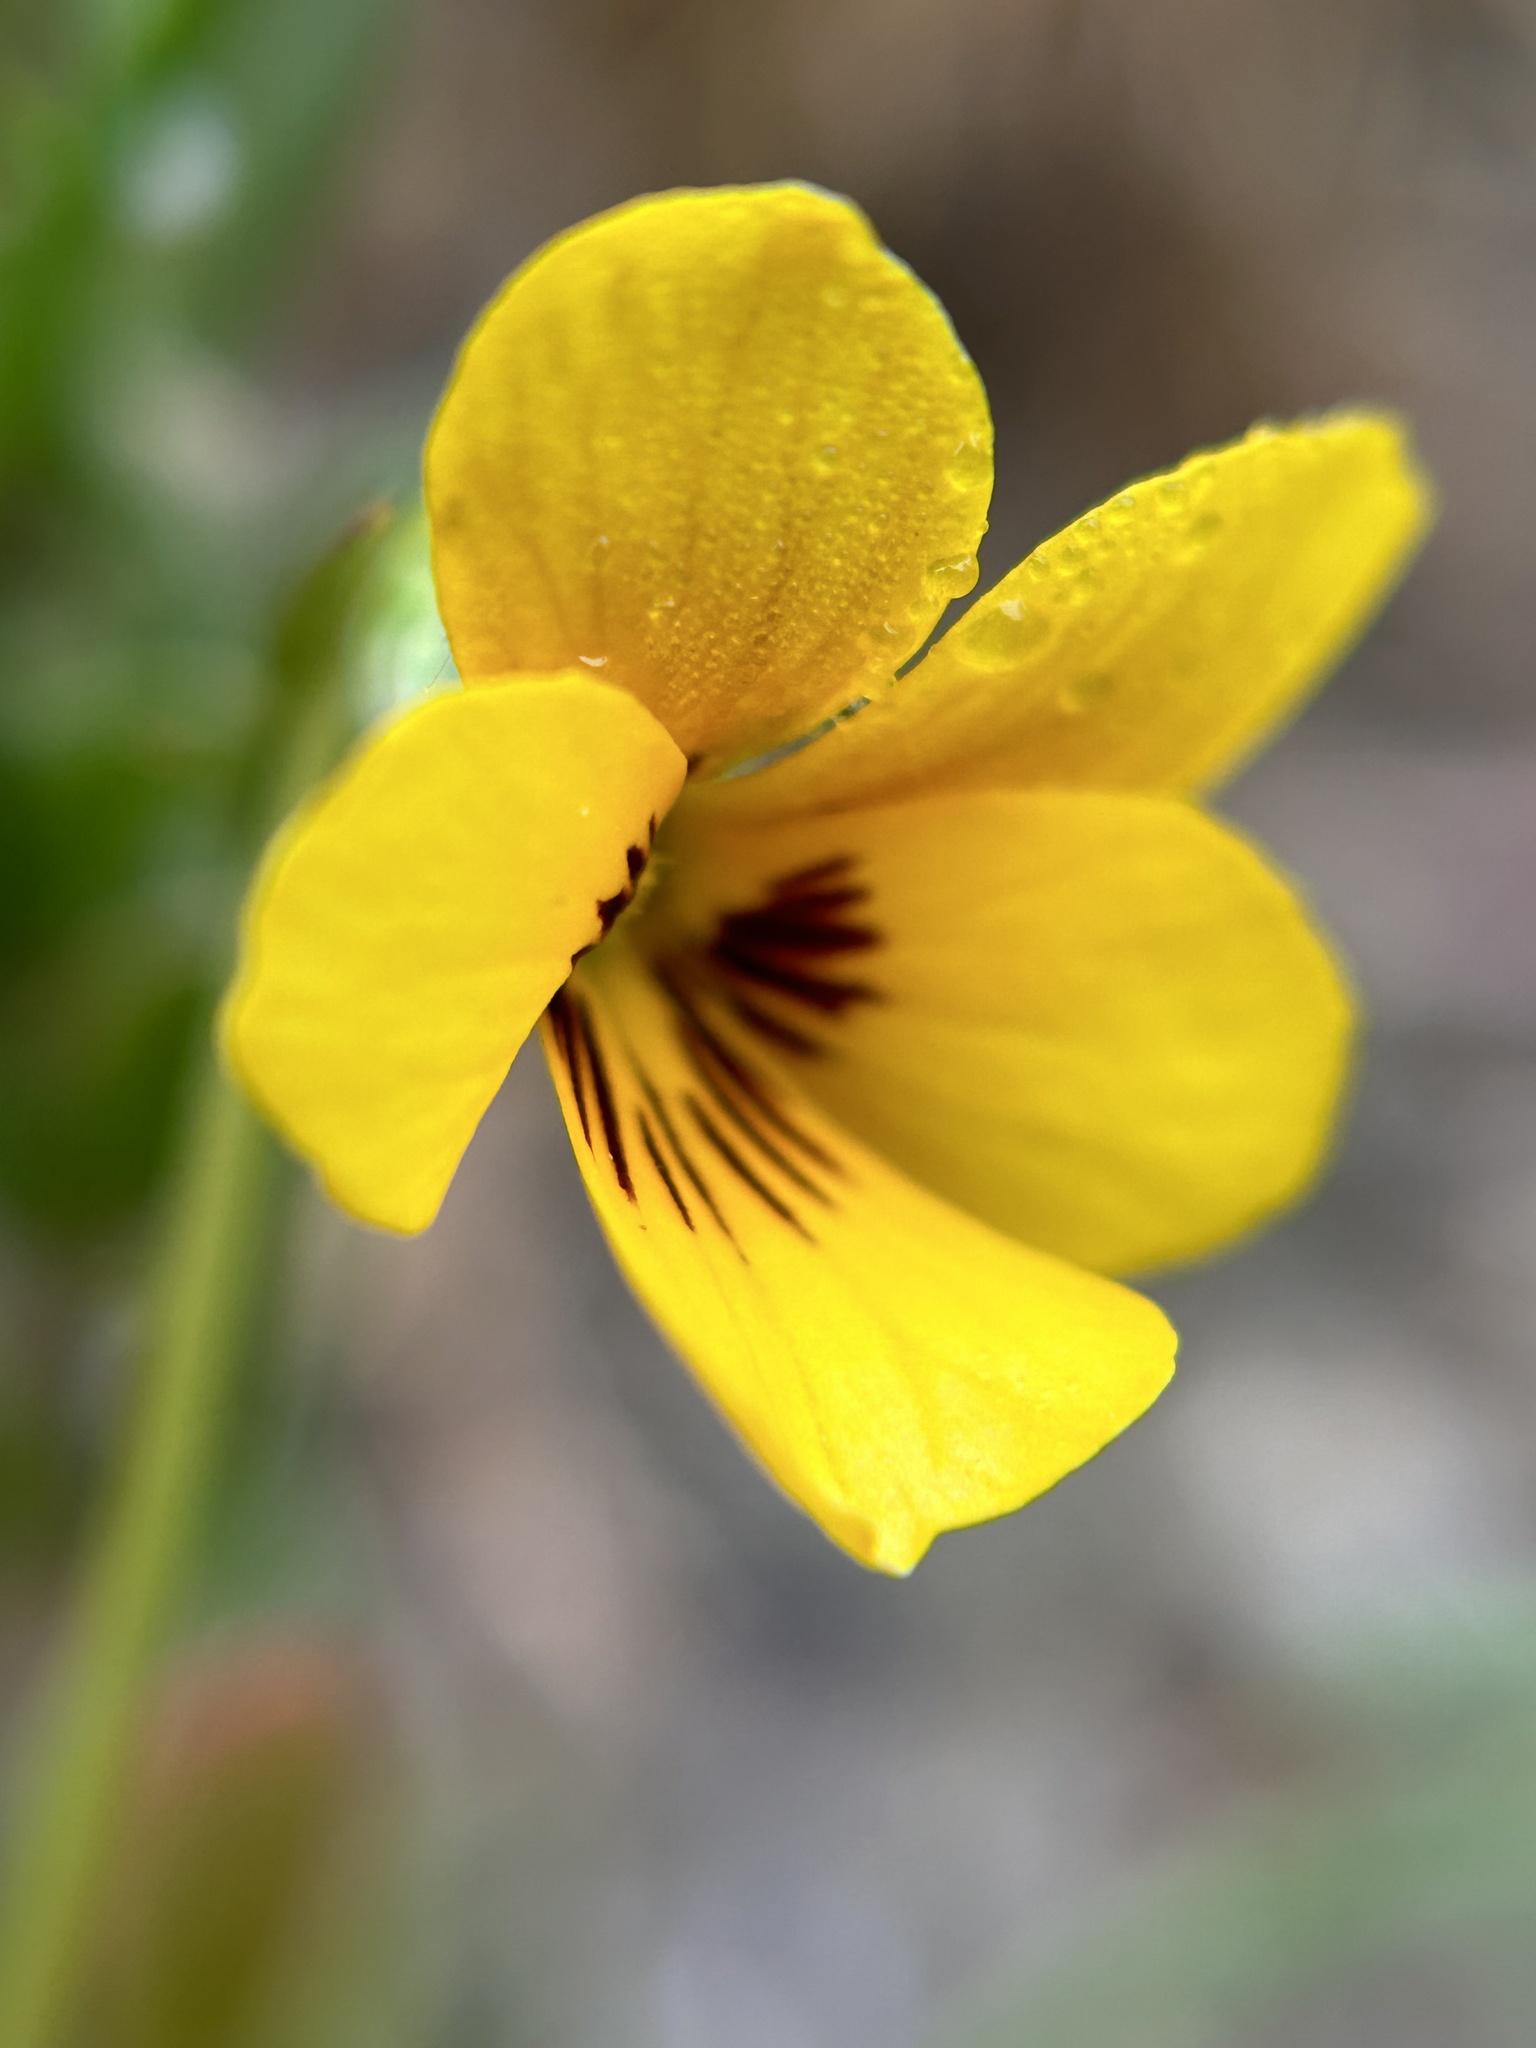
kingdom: Plantae
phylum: Tracheophyta
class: Magnoliopsida
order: Malpighiales
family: Violaceae
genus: Viola
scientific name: Viola douglasii
